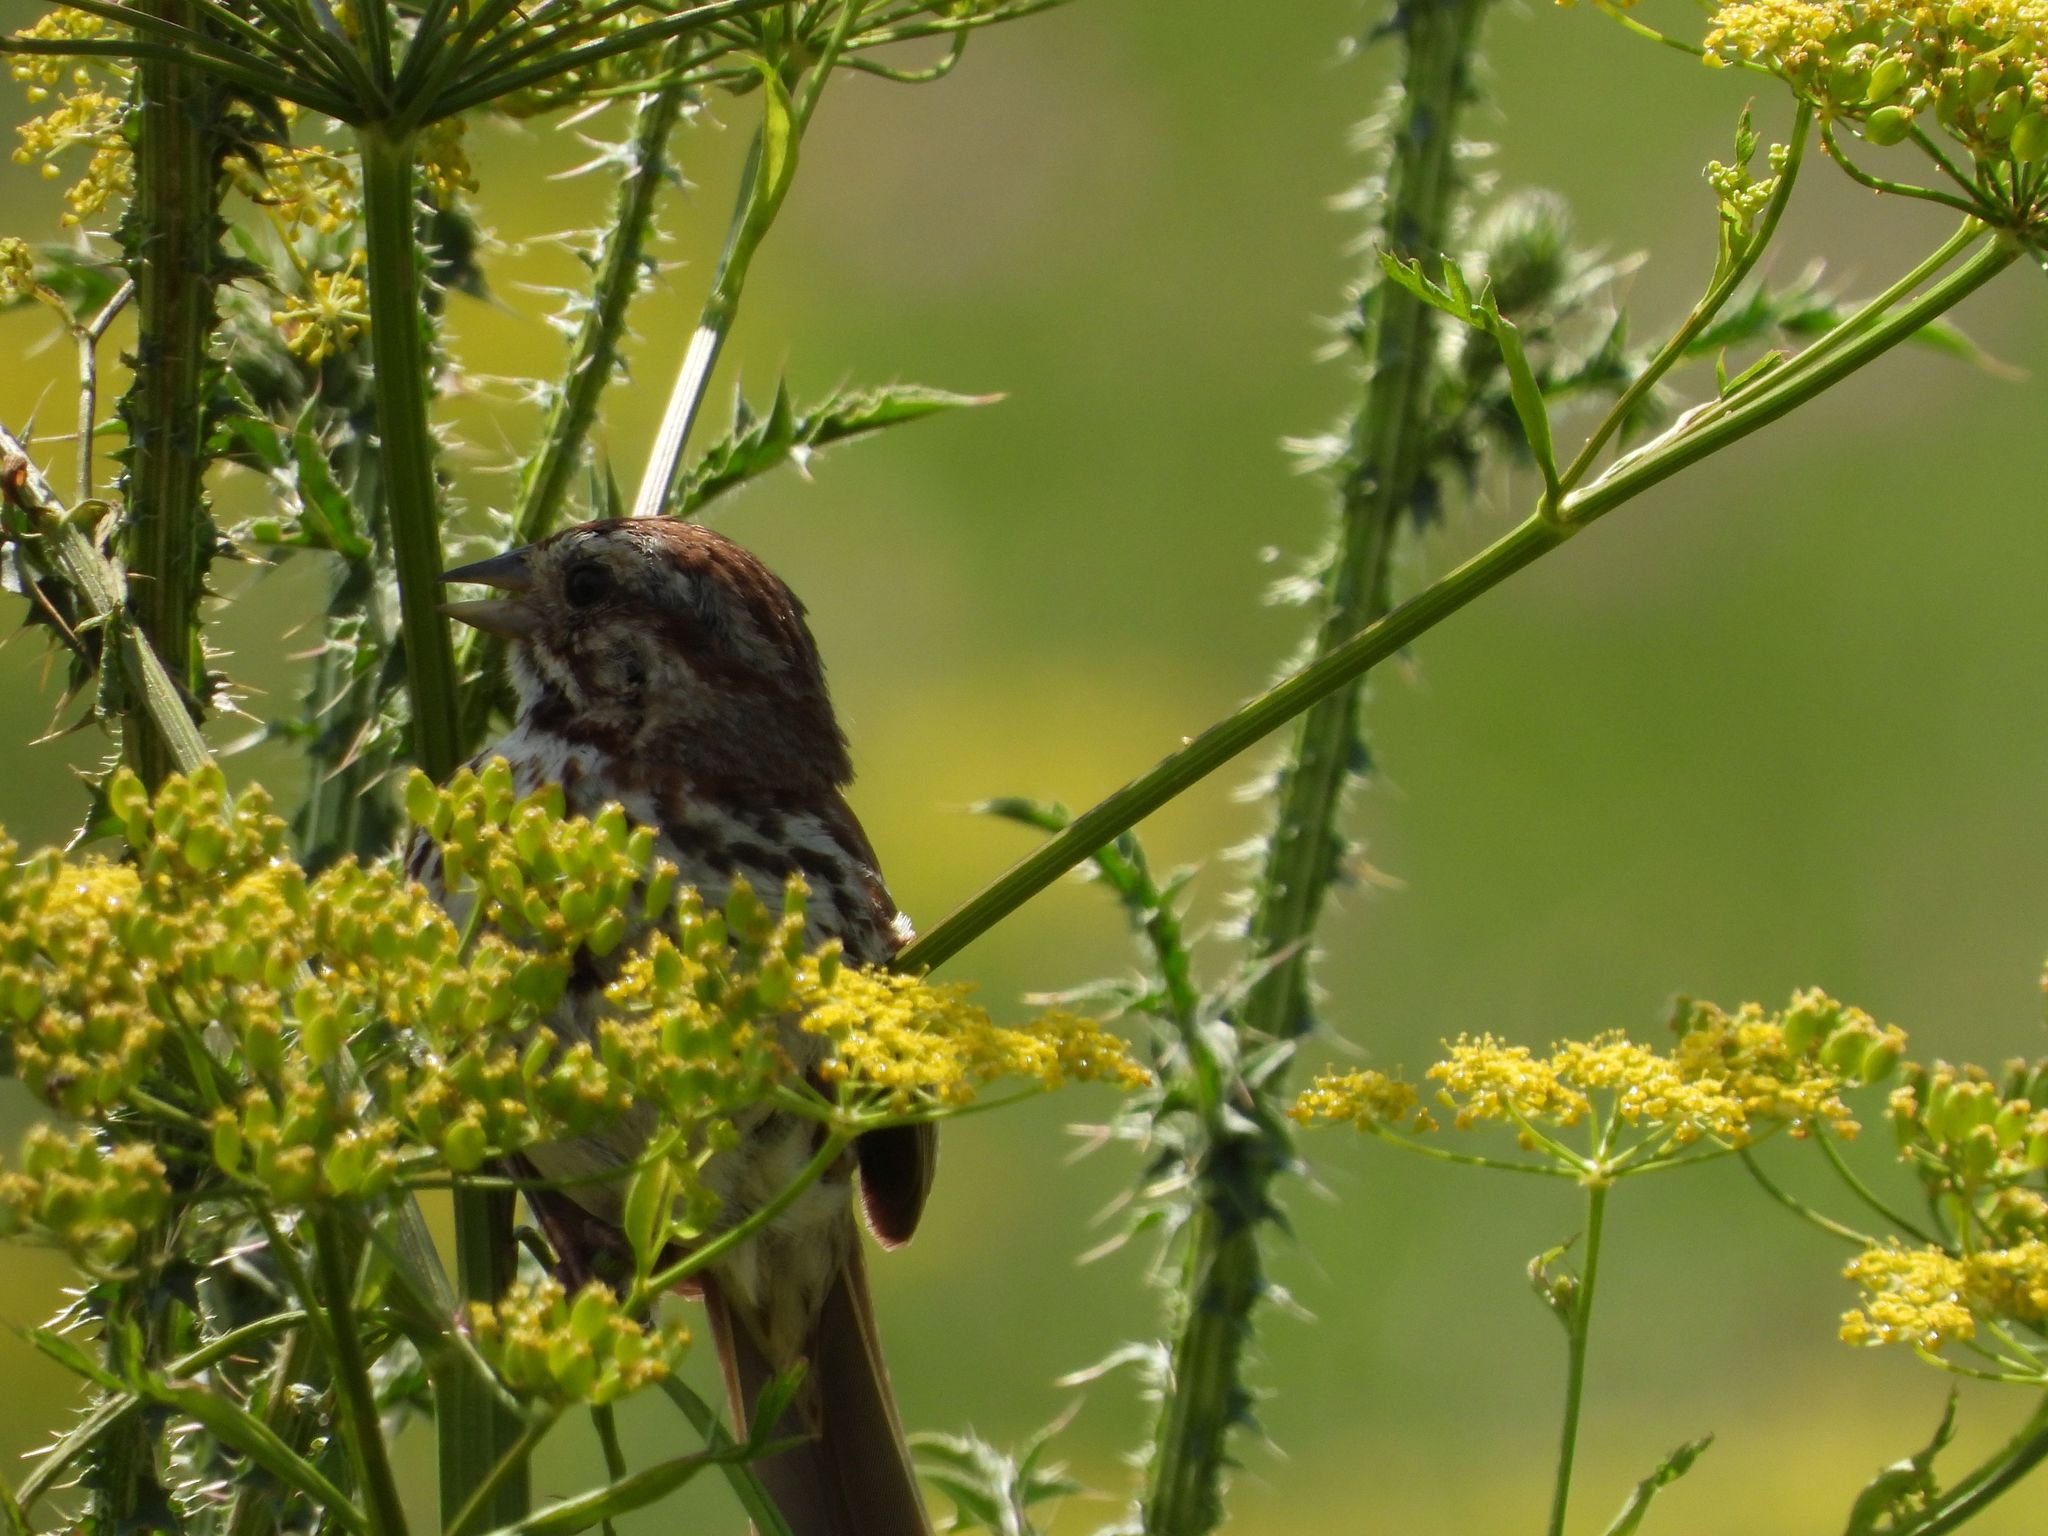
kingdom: Animalia
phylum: Chordata
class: Aves
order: Passeriformes
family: Passerellidae
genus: Melospiza
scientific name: Melospiza melodia
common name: Song sparrow
